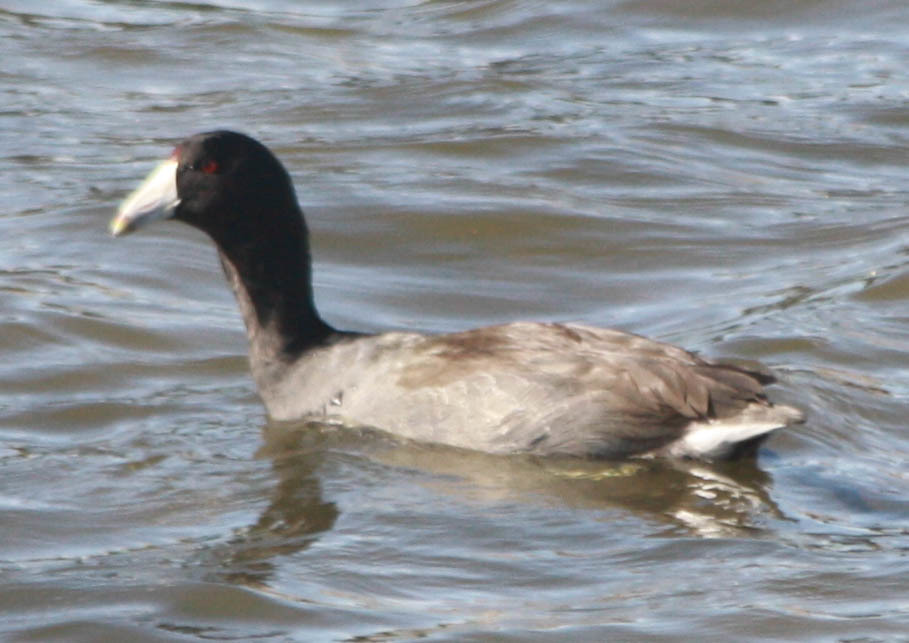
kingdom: Animalia
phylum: Chordata
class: Aves
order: Gruiformes
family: Rallidae
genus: Fulica
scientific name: Fulica americana
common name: American coot
